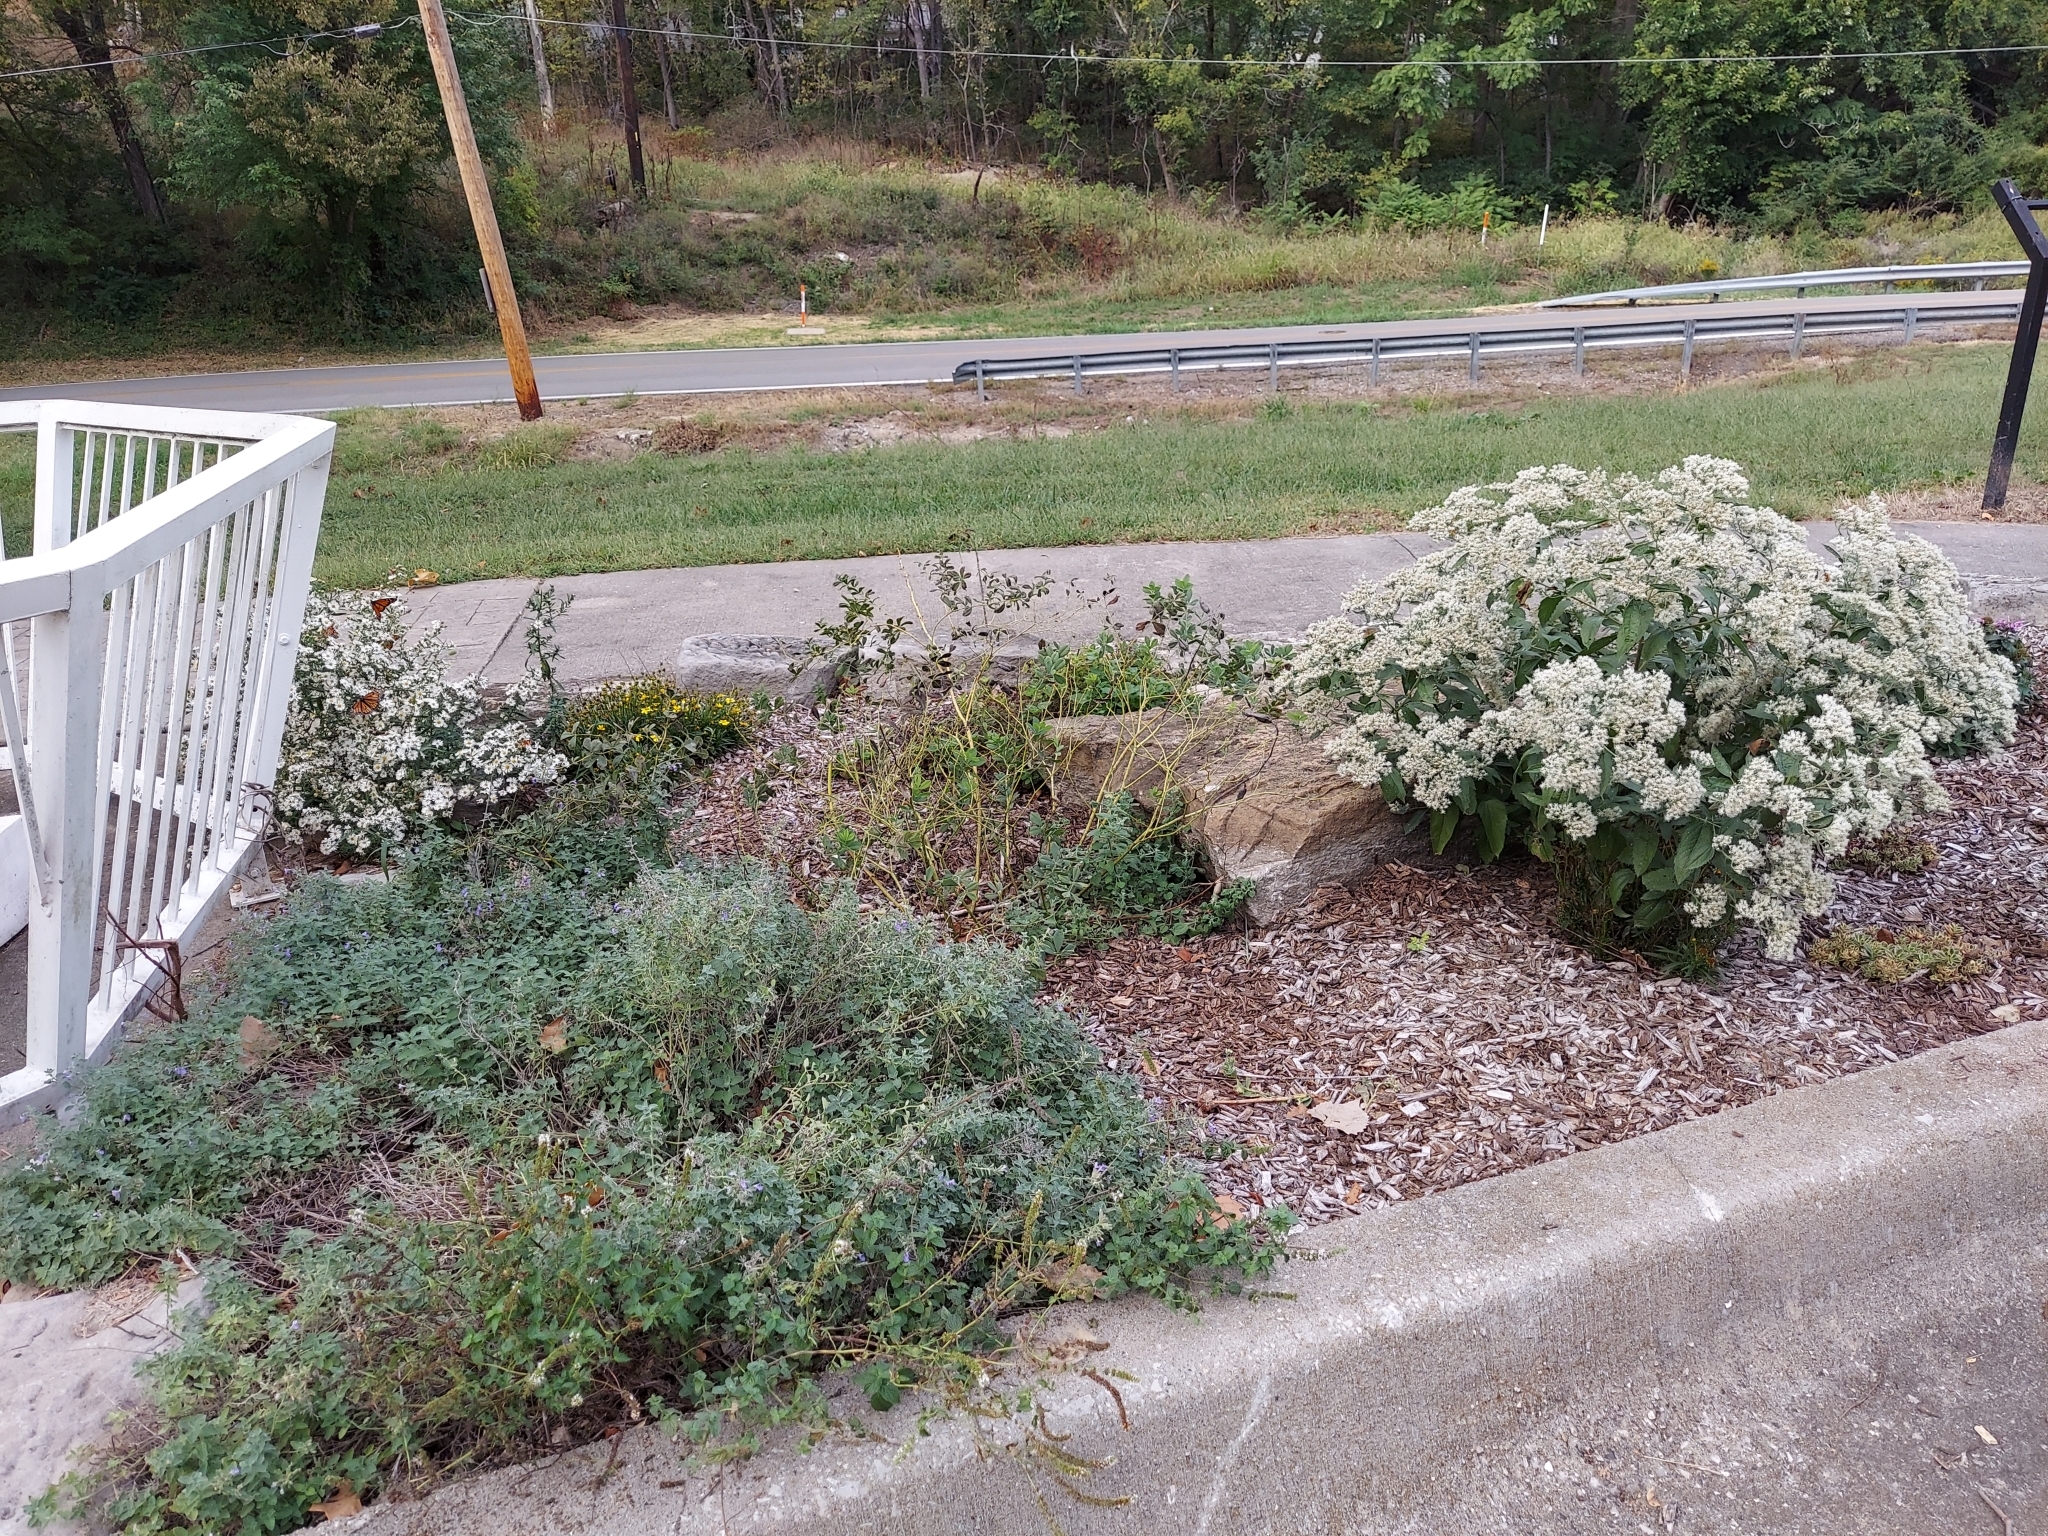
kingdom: Animalia
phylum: Arthropoda
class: Insecta
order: Lepidoptera
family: Nymphalidae
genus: Danaus
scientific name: Danaus plexippus
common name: Monarch
